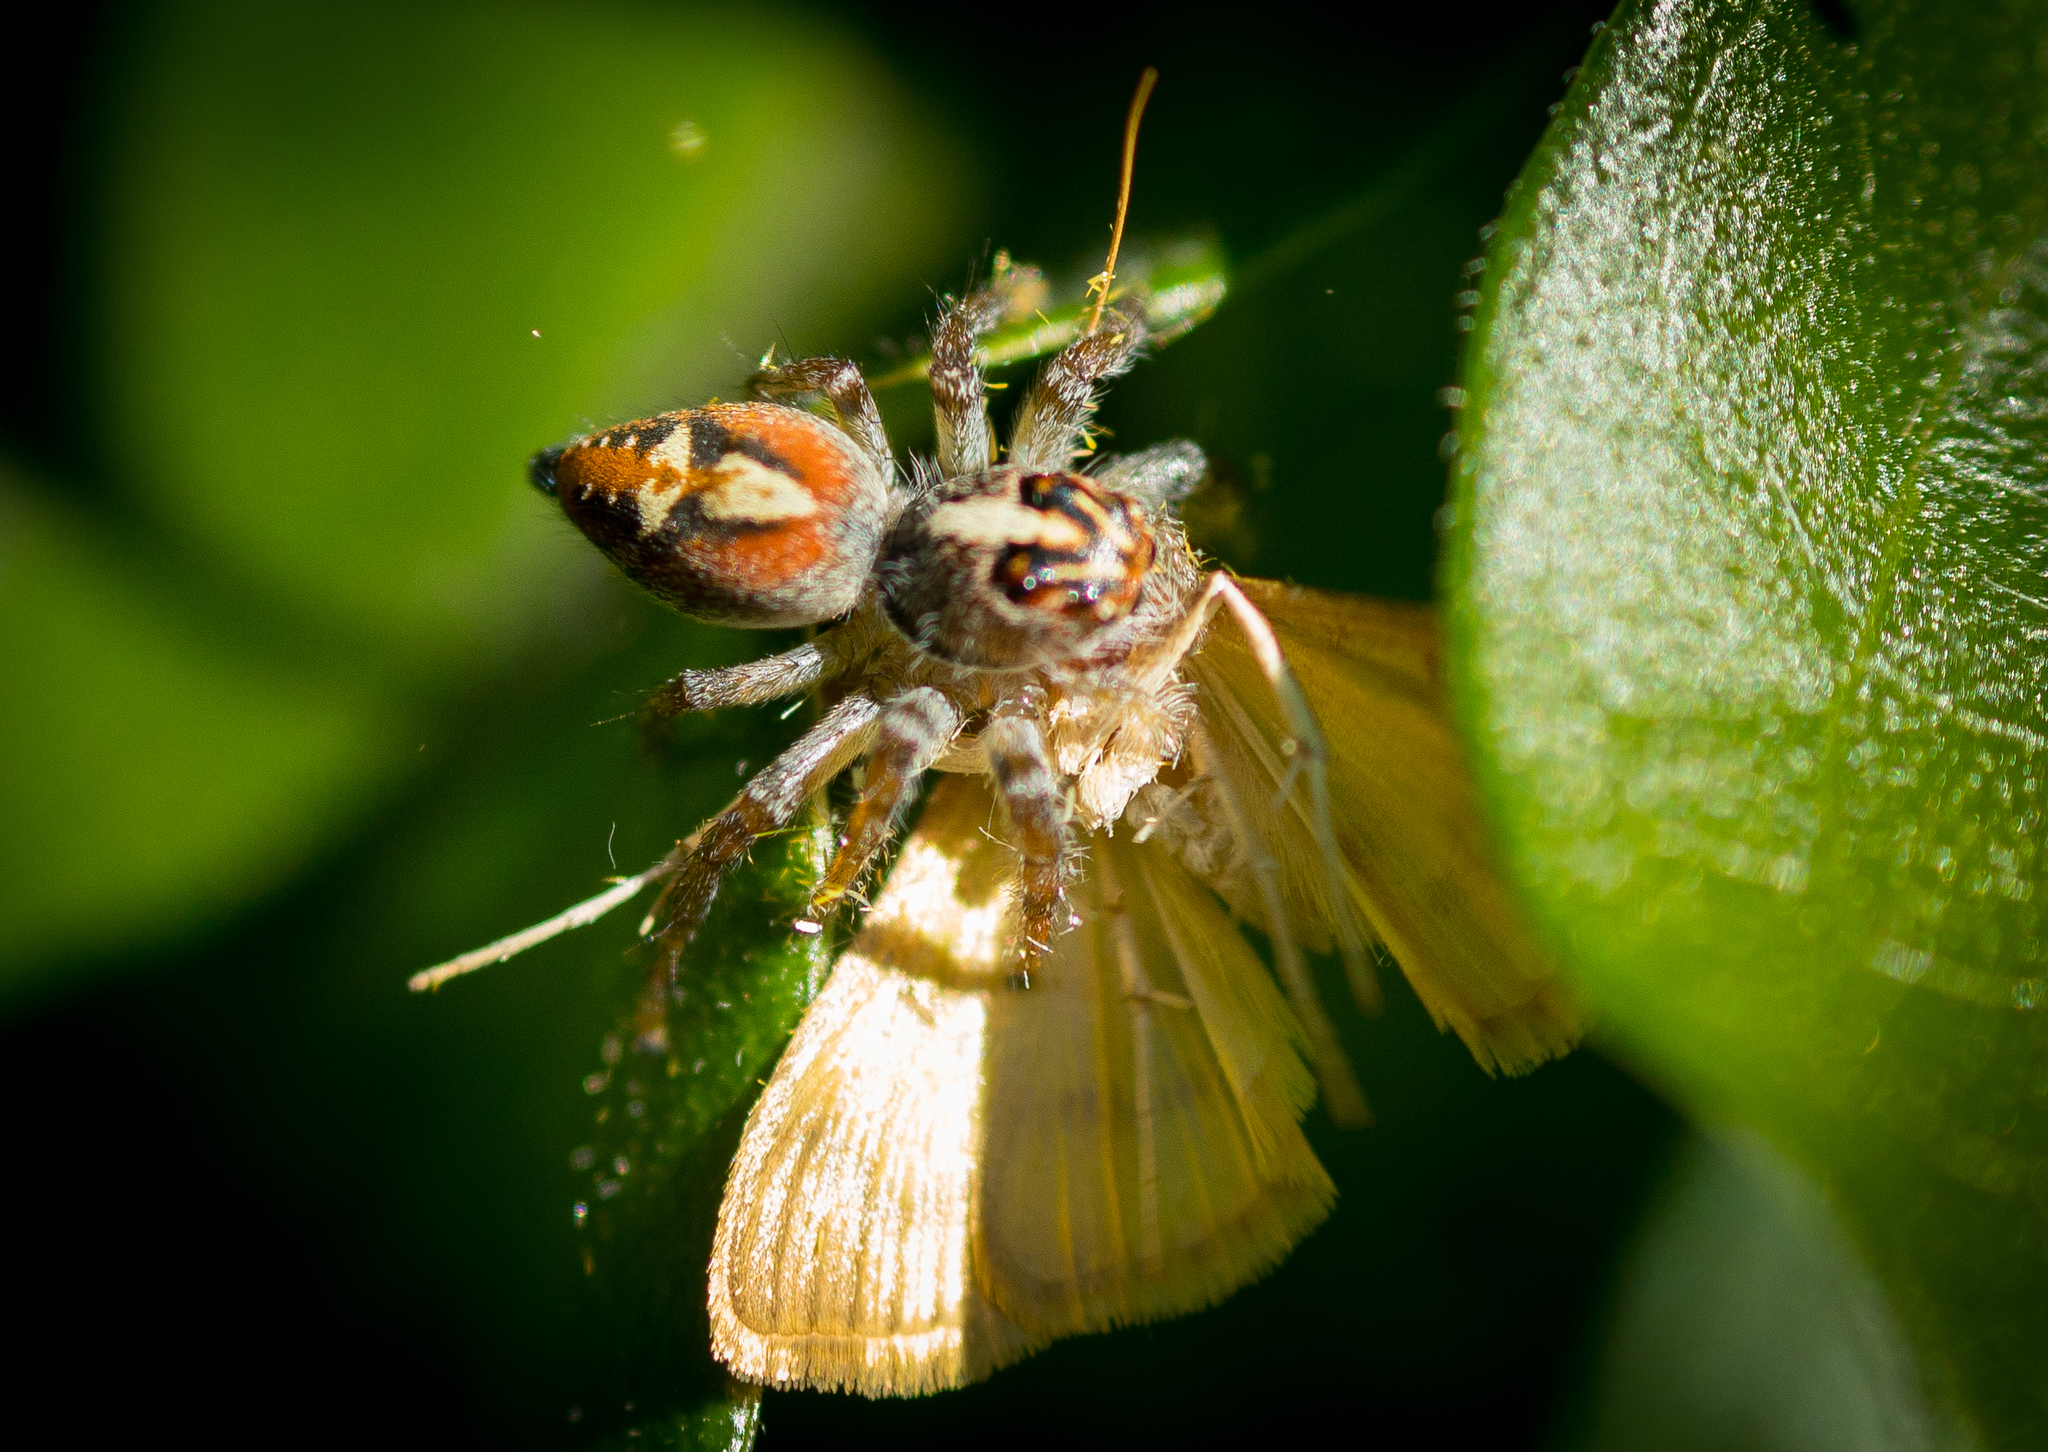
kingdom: Animalia
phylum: Arthropoda
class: Arachnida
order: Araneae
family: Salticidae
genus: Frigga
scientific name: Frigga quintensis
